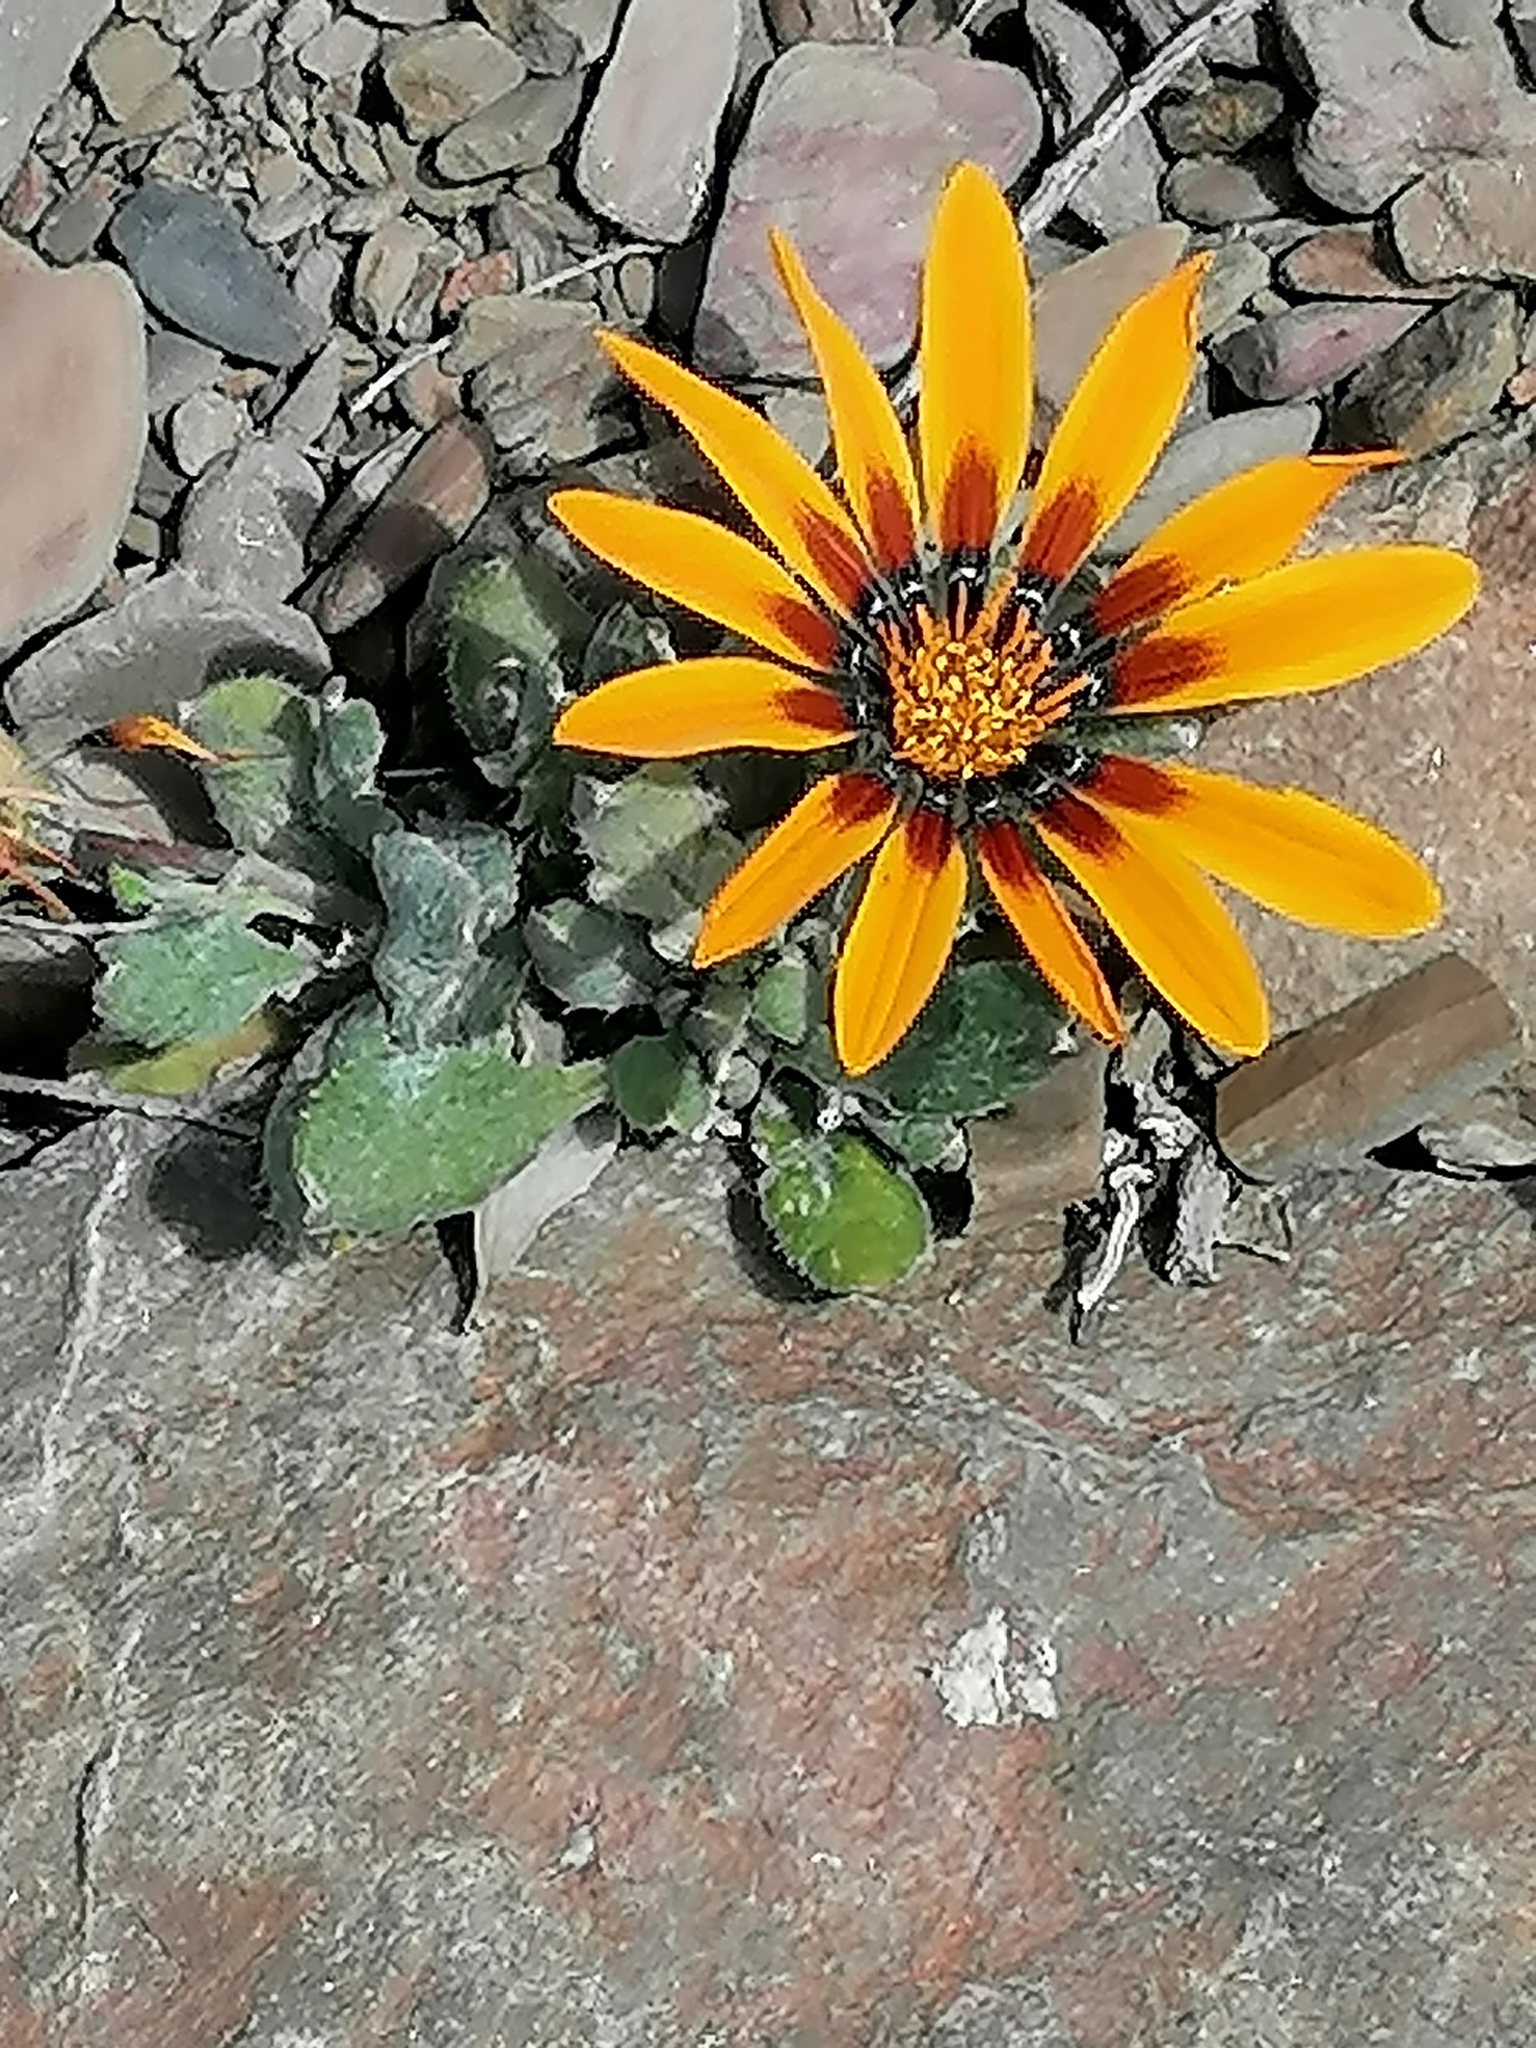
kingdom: Plantae
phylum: Tracheophyta
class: Magnoliopsida
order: Asterales
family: Asteraceae
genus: Gazania
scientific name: Gazania heterochaeta
